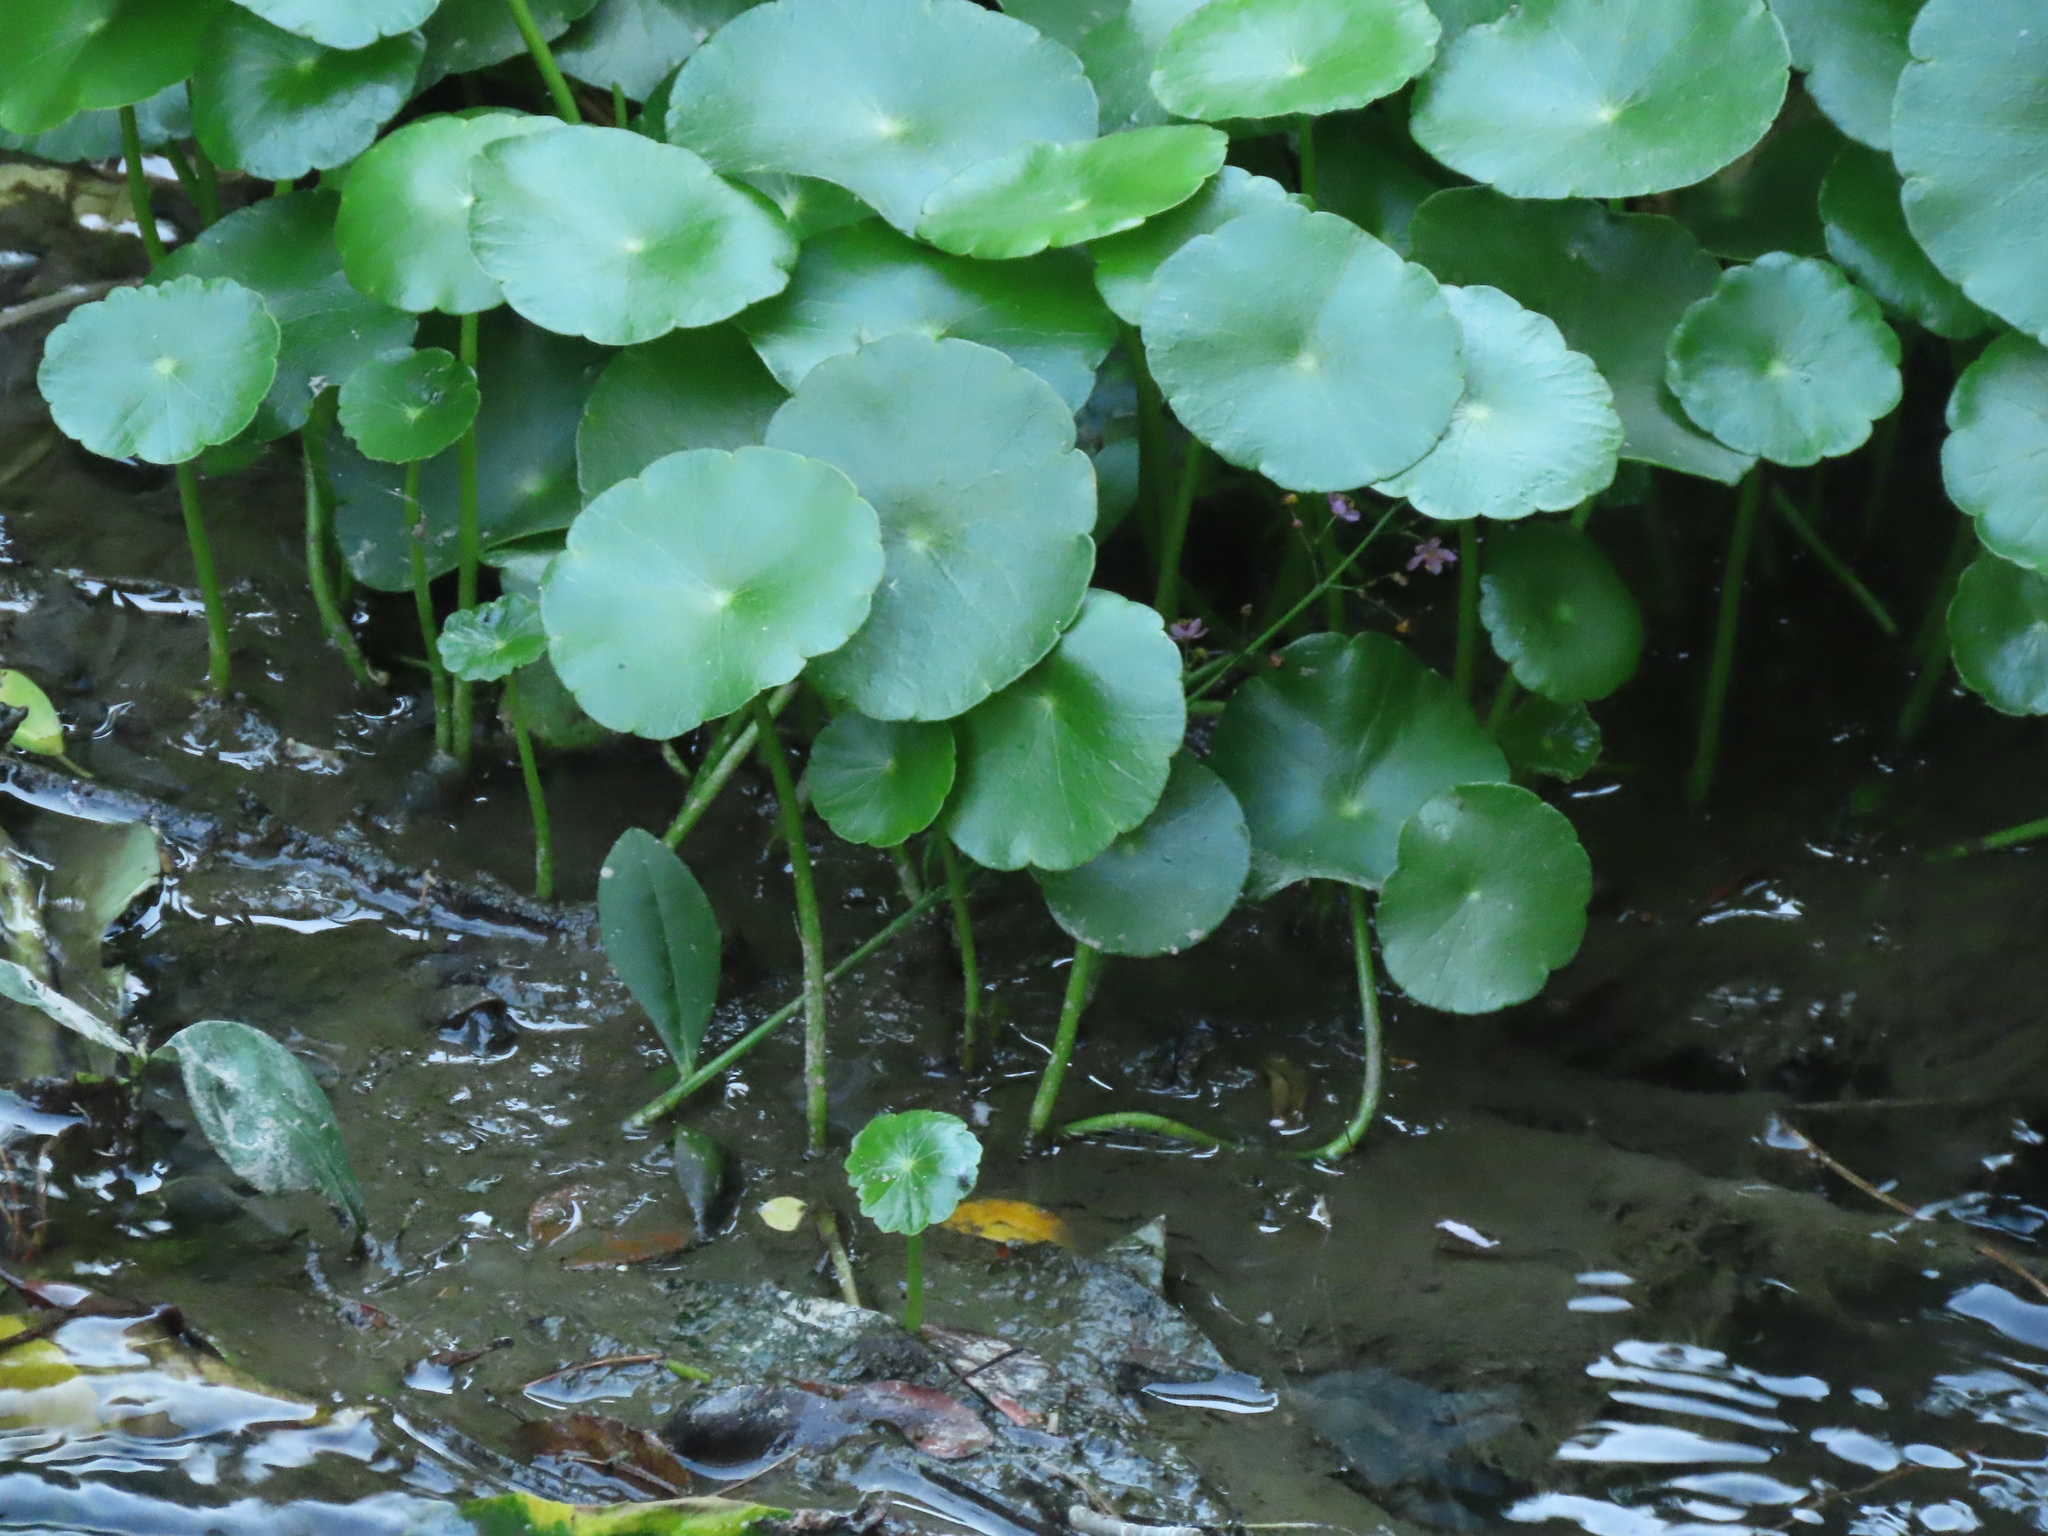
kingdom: Plantae
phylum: Tracheophyta
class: Magnoliopsida
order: Apiales
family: Araliaceae
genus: Hydrocotyle
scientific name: Hydrocotyle verticillata
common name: Whorled marshpennywort
